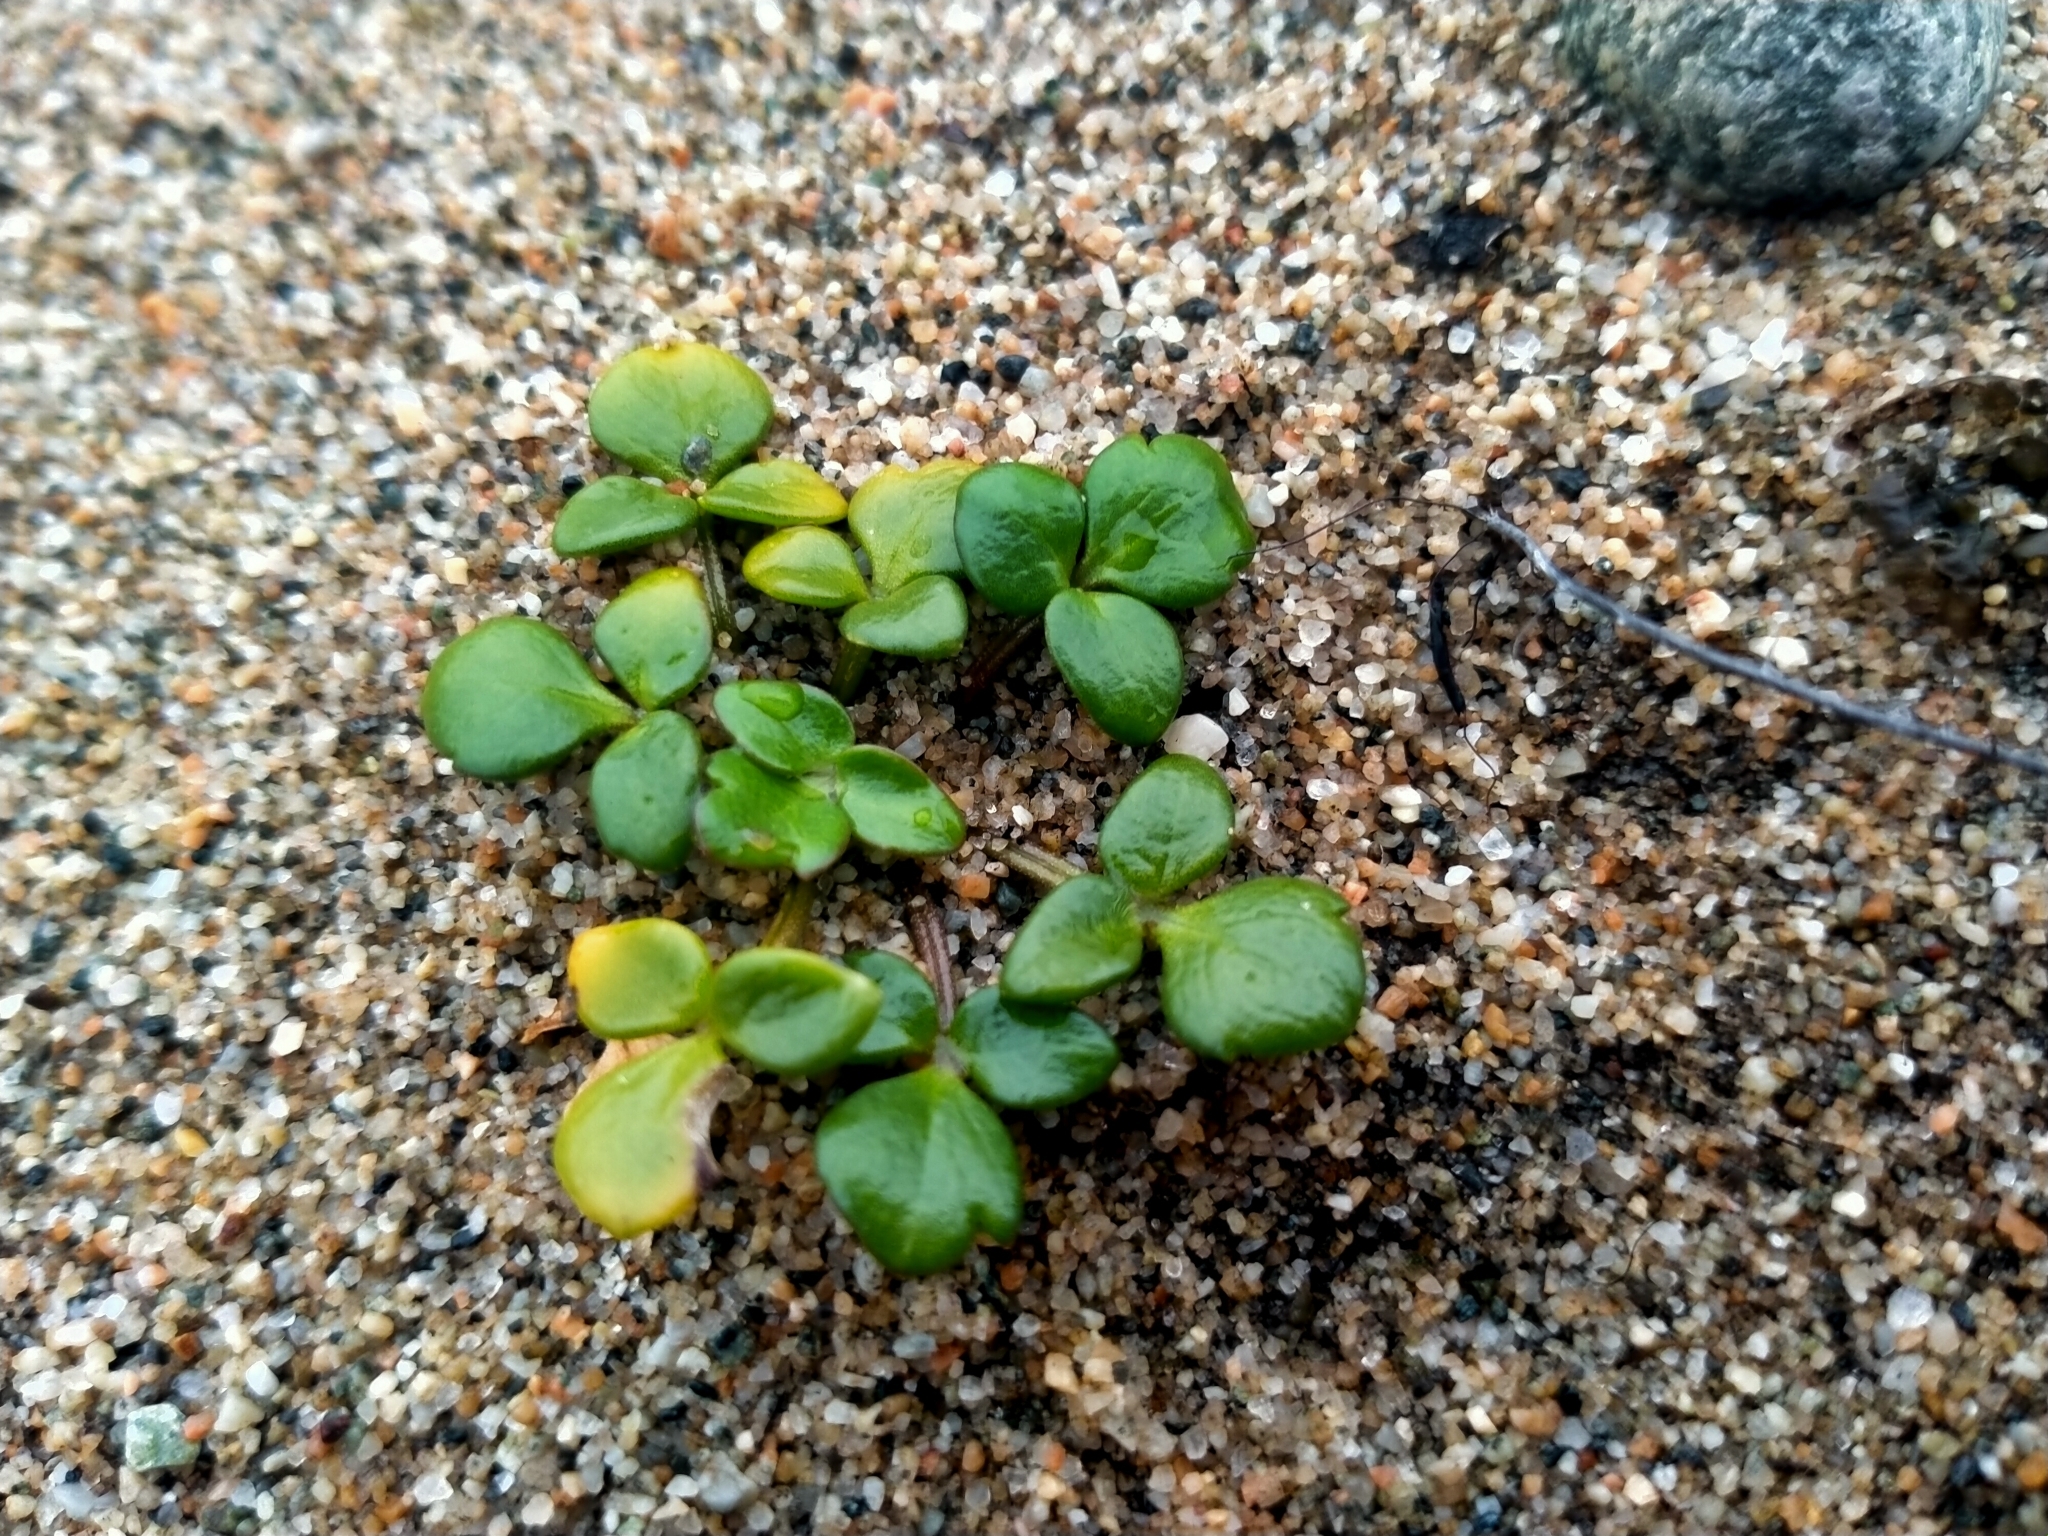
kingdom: Plantae
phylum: Tracheophyta
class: Magnoliopsida
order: Ranunculales
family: Ranunculaceae
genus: Ranunculus
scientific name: Ranunculus acaulis
